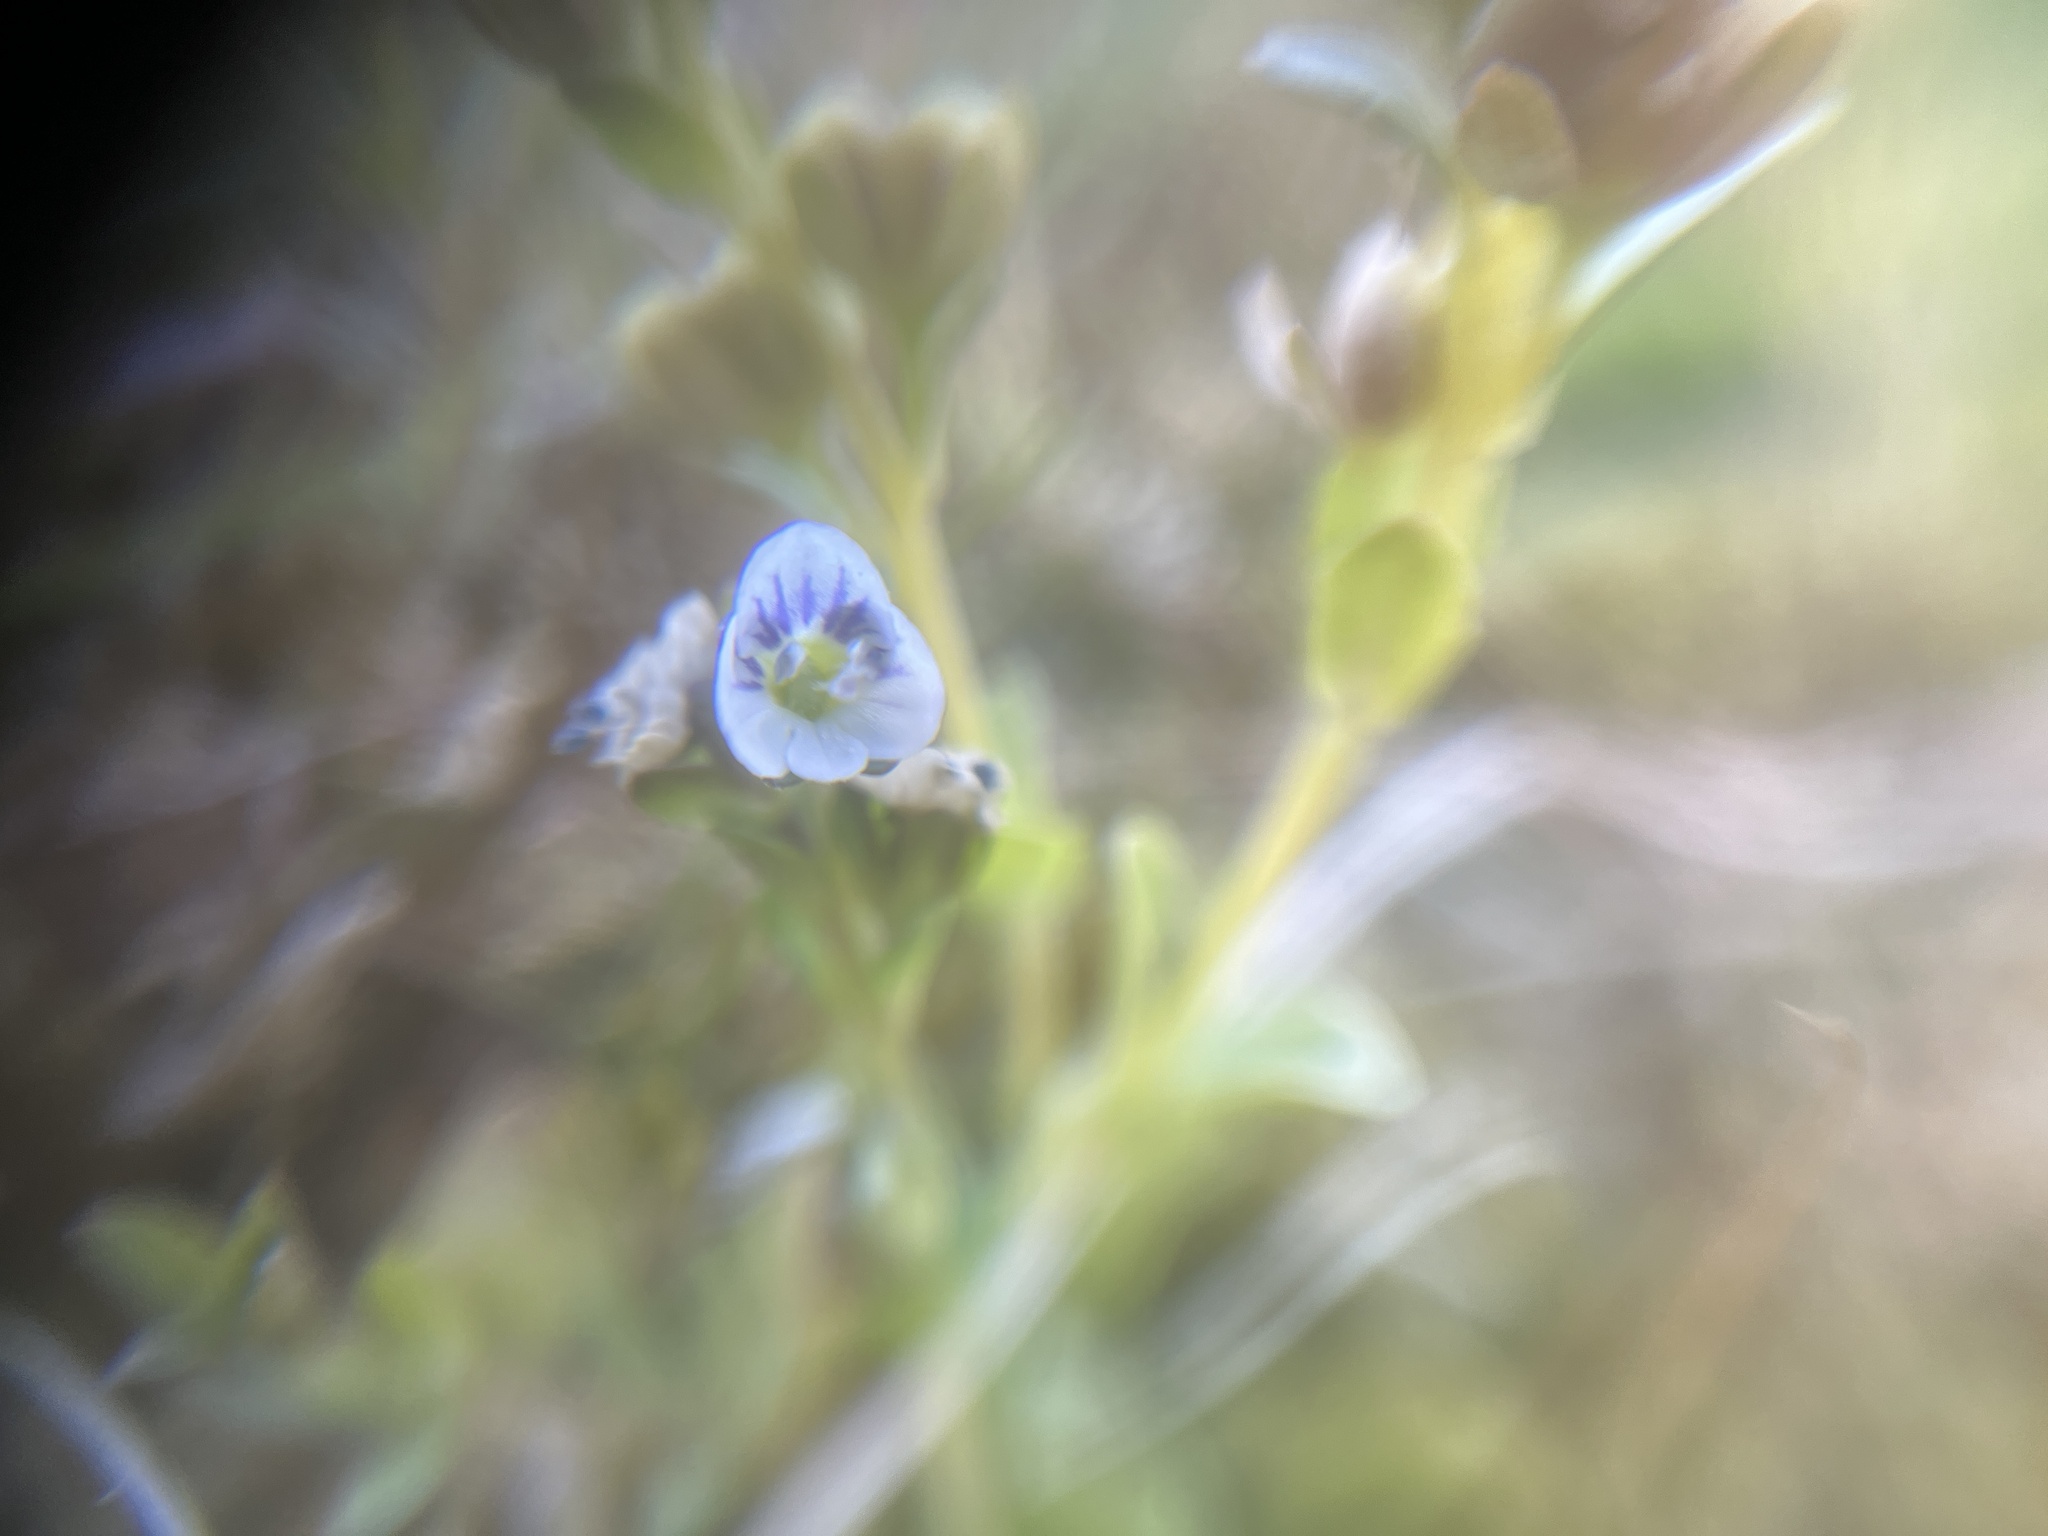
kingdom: Plantae
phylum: Tracheophyta
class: Magnoliopsida
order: Lamiales
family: Plantaginaceae
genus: Veronica
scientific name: Veronica serpyllifolia
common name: Thyme-leaved speedwell
